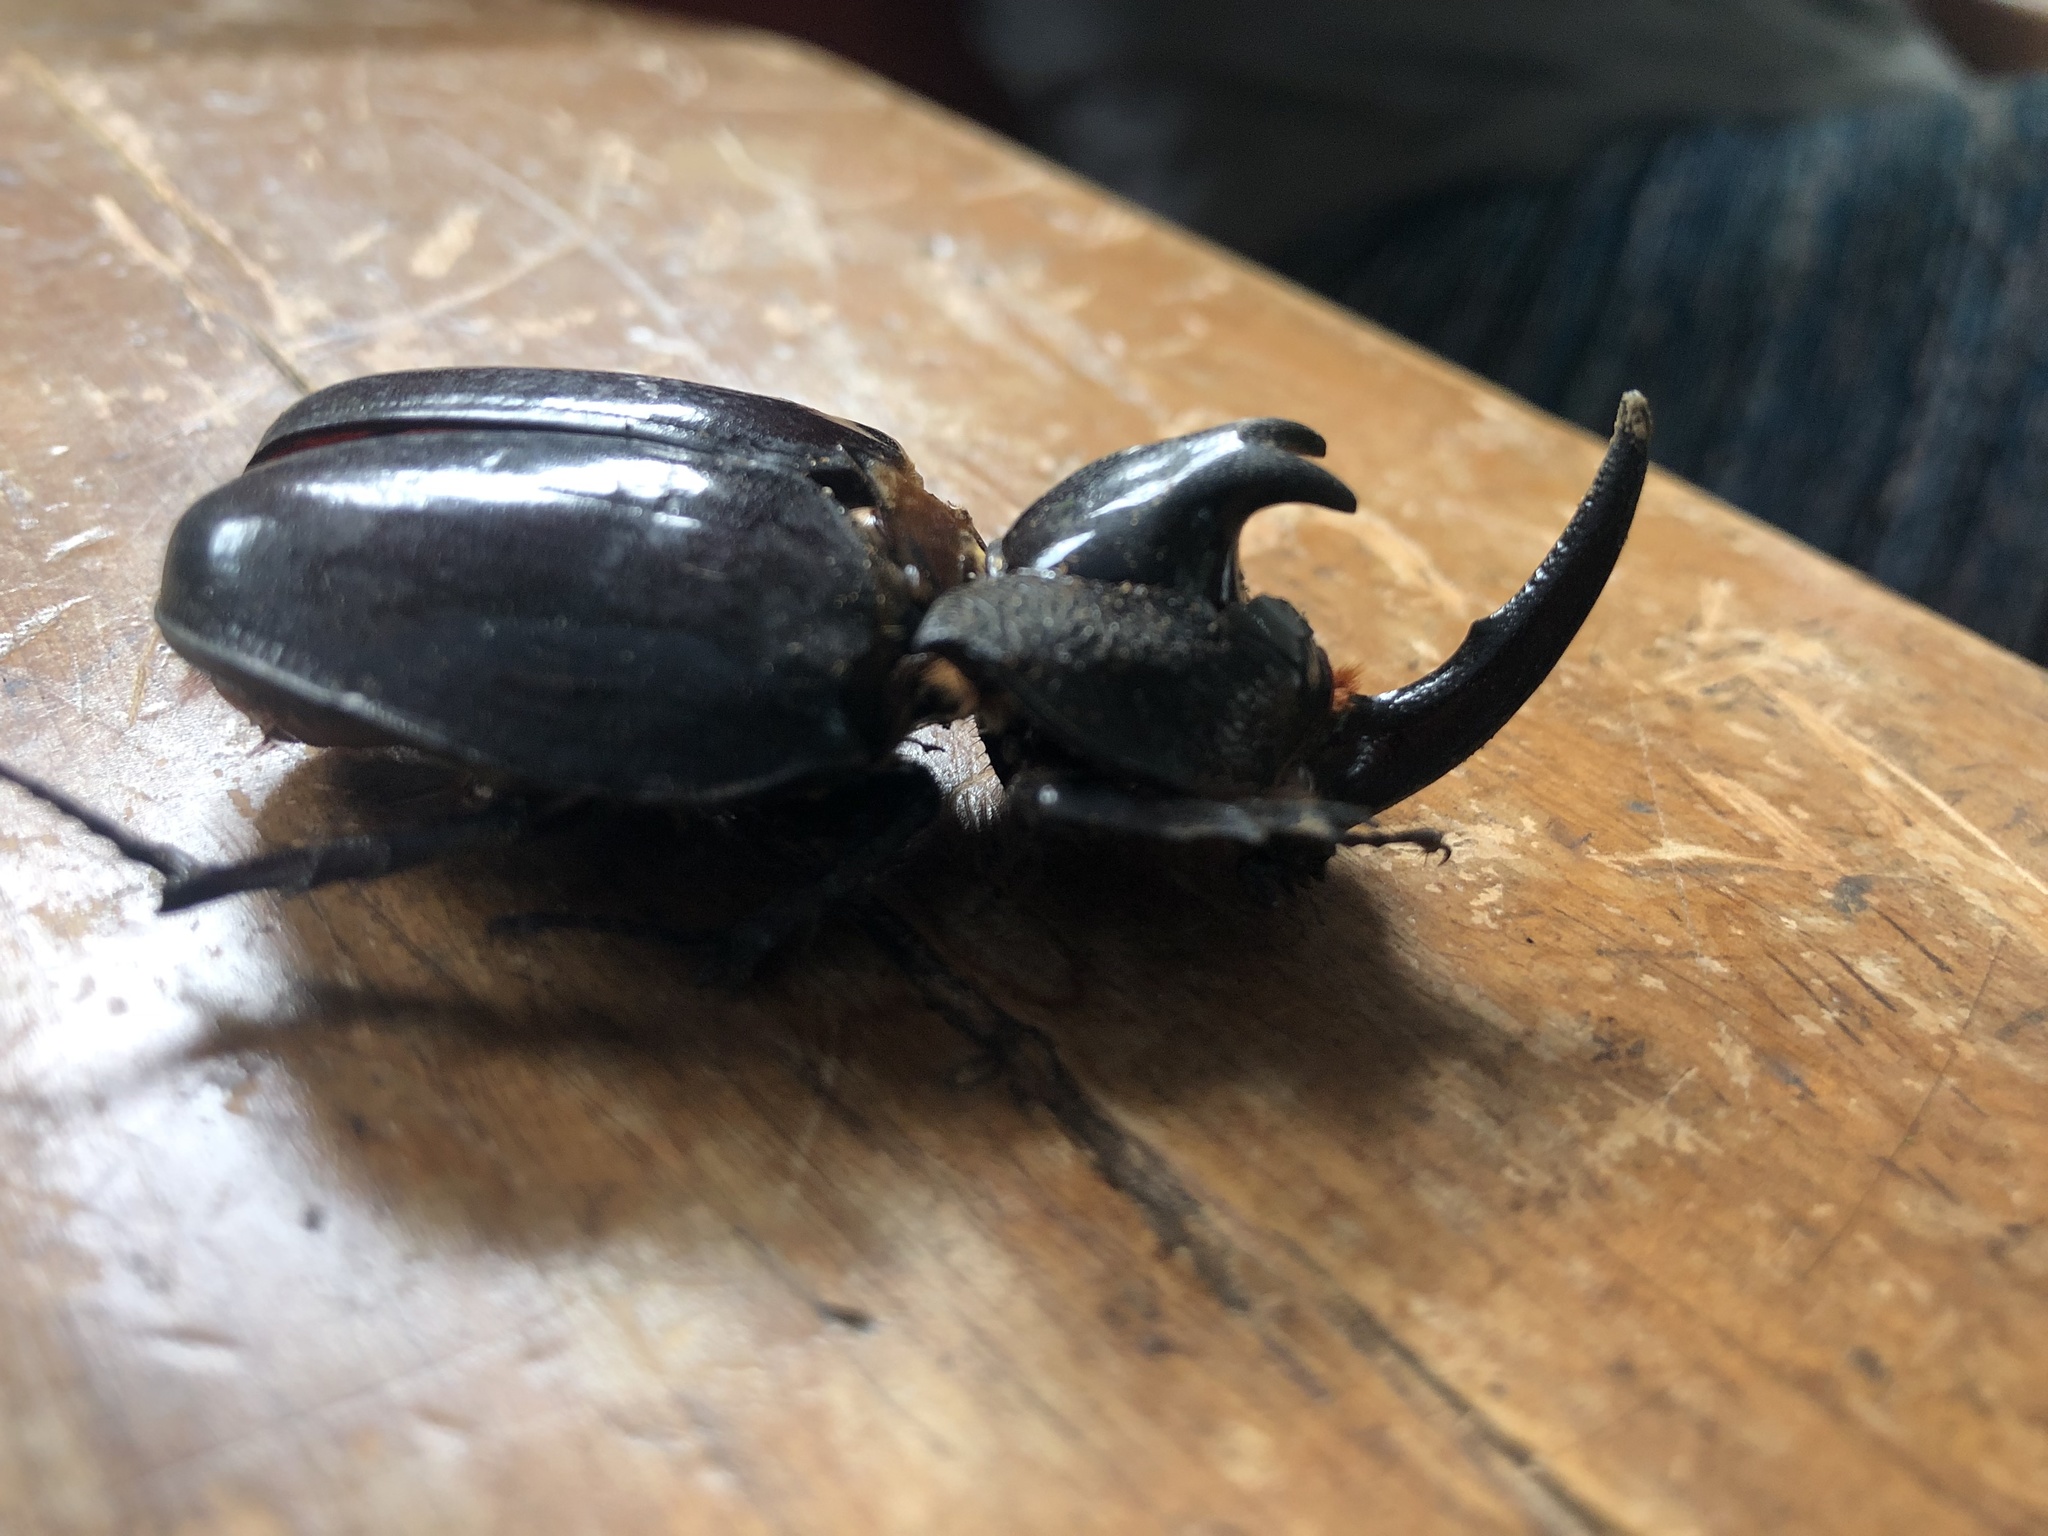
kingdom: Animalia
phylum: Arthropoda
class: Insecta
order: Coleoptera
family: Scarabaeidae
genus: Enema
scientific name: Enema pan
